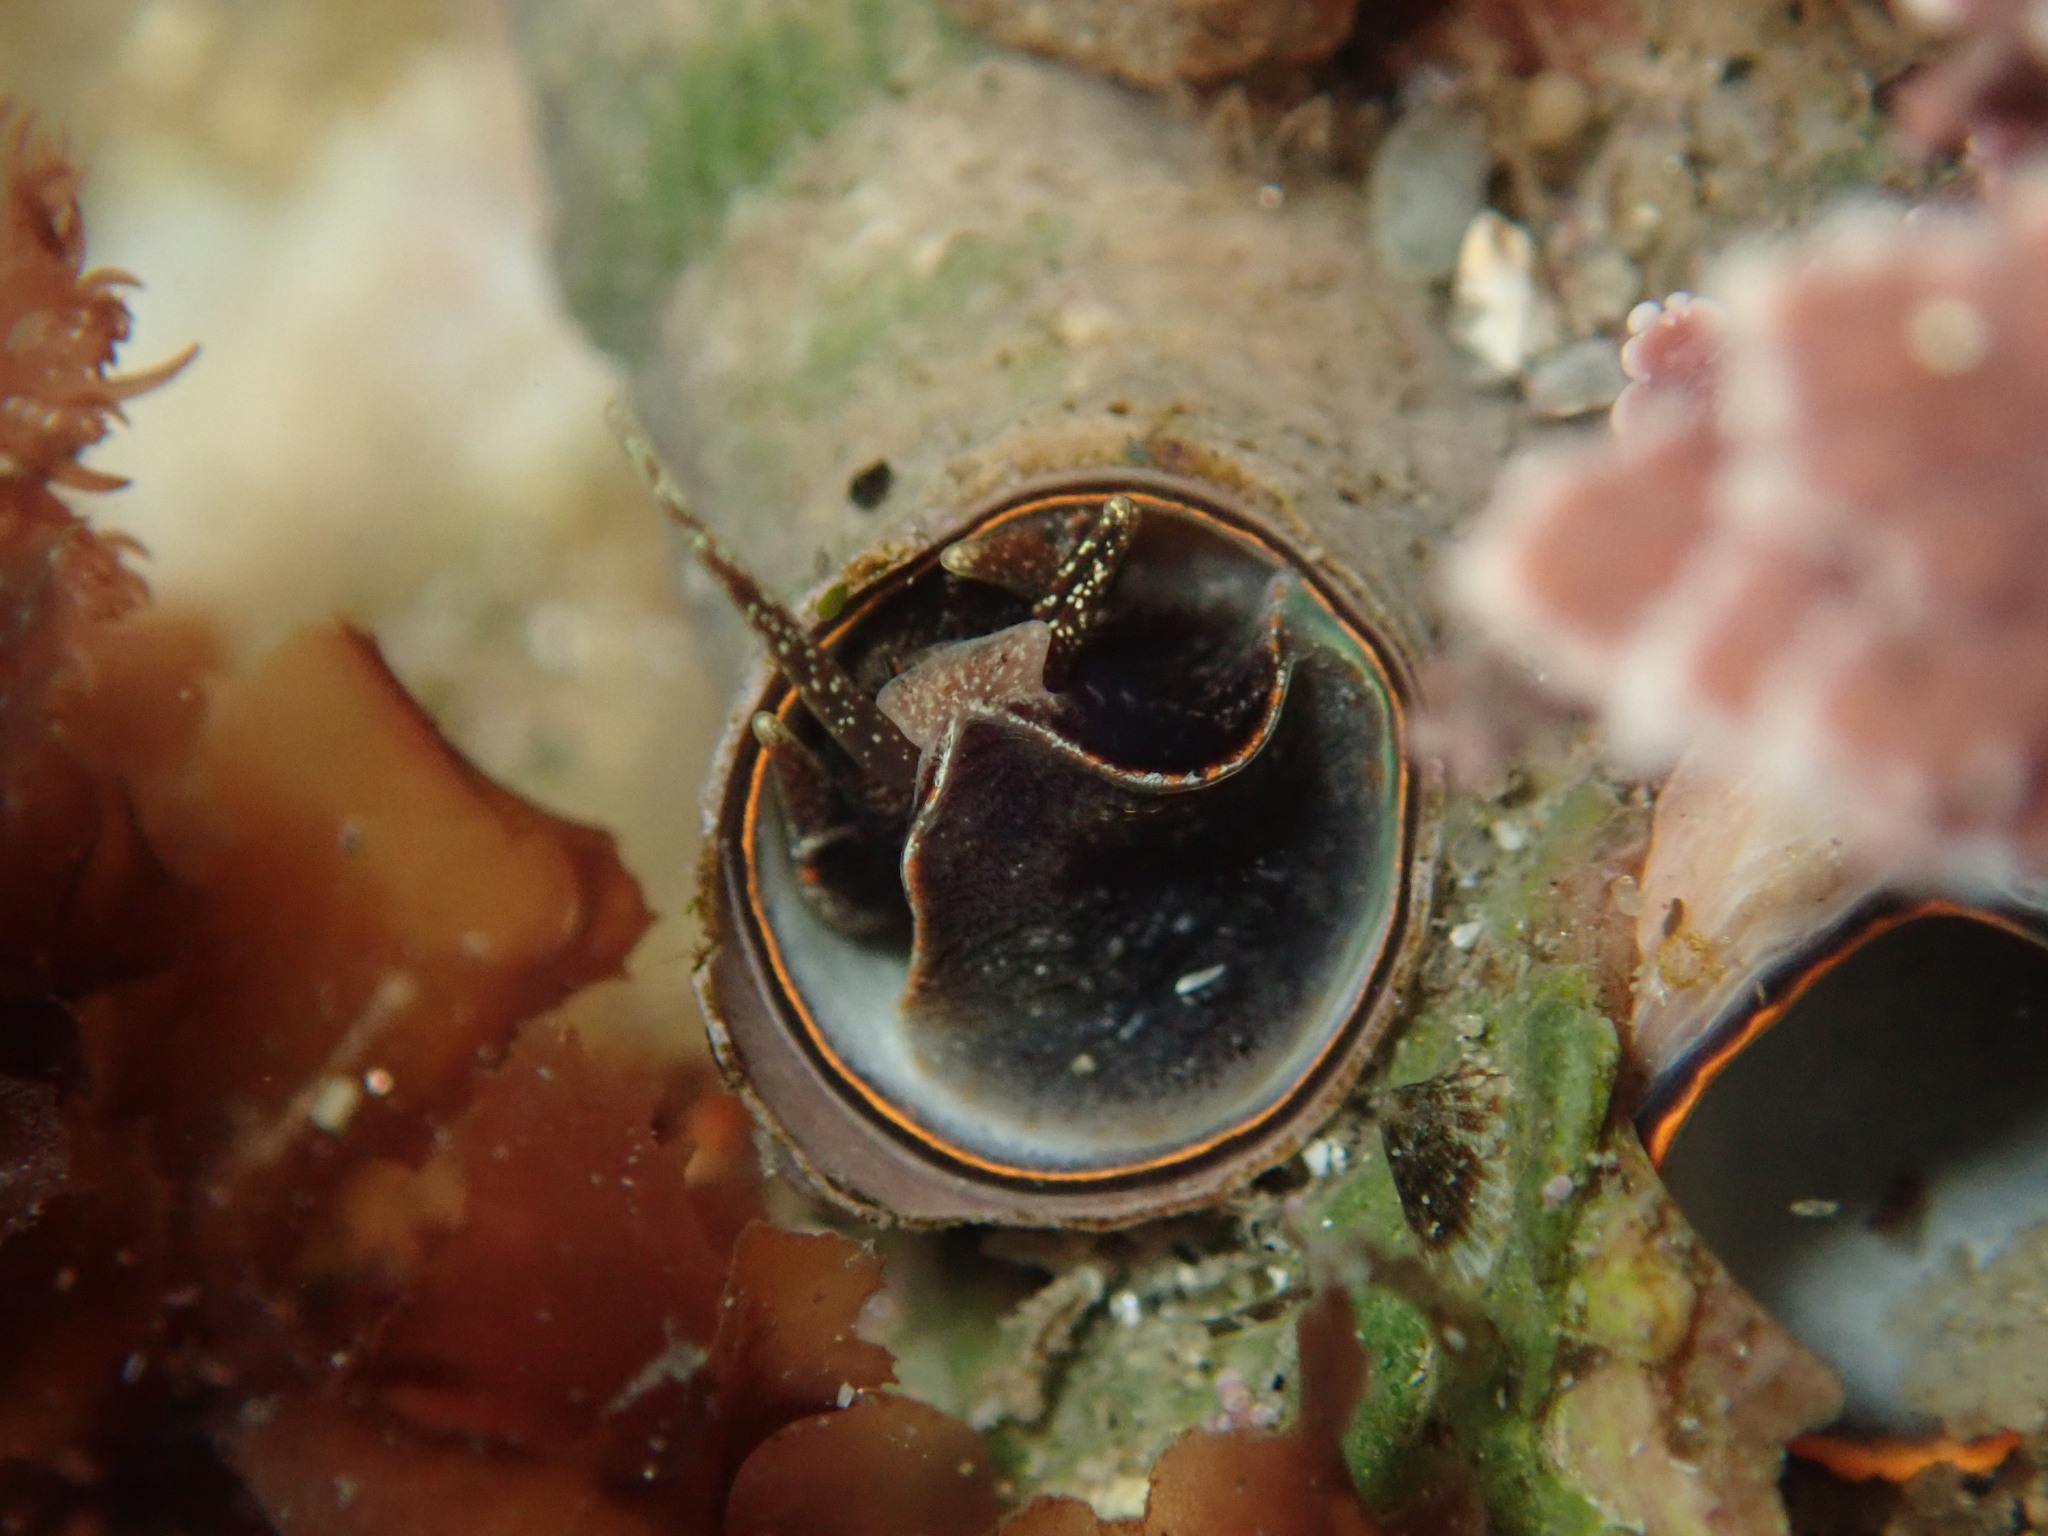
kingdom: Animalia
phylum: Mollusca
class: Gastropoda
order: Littorinimorpha
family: Vermetidae
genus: Thylacodes
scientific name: Thylacodes squamigerus
